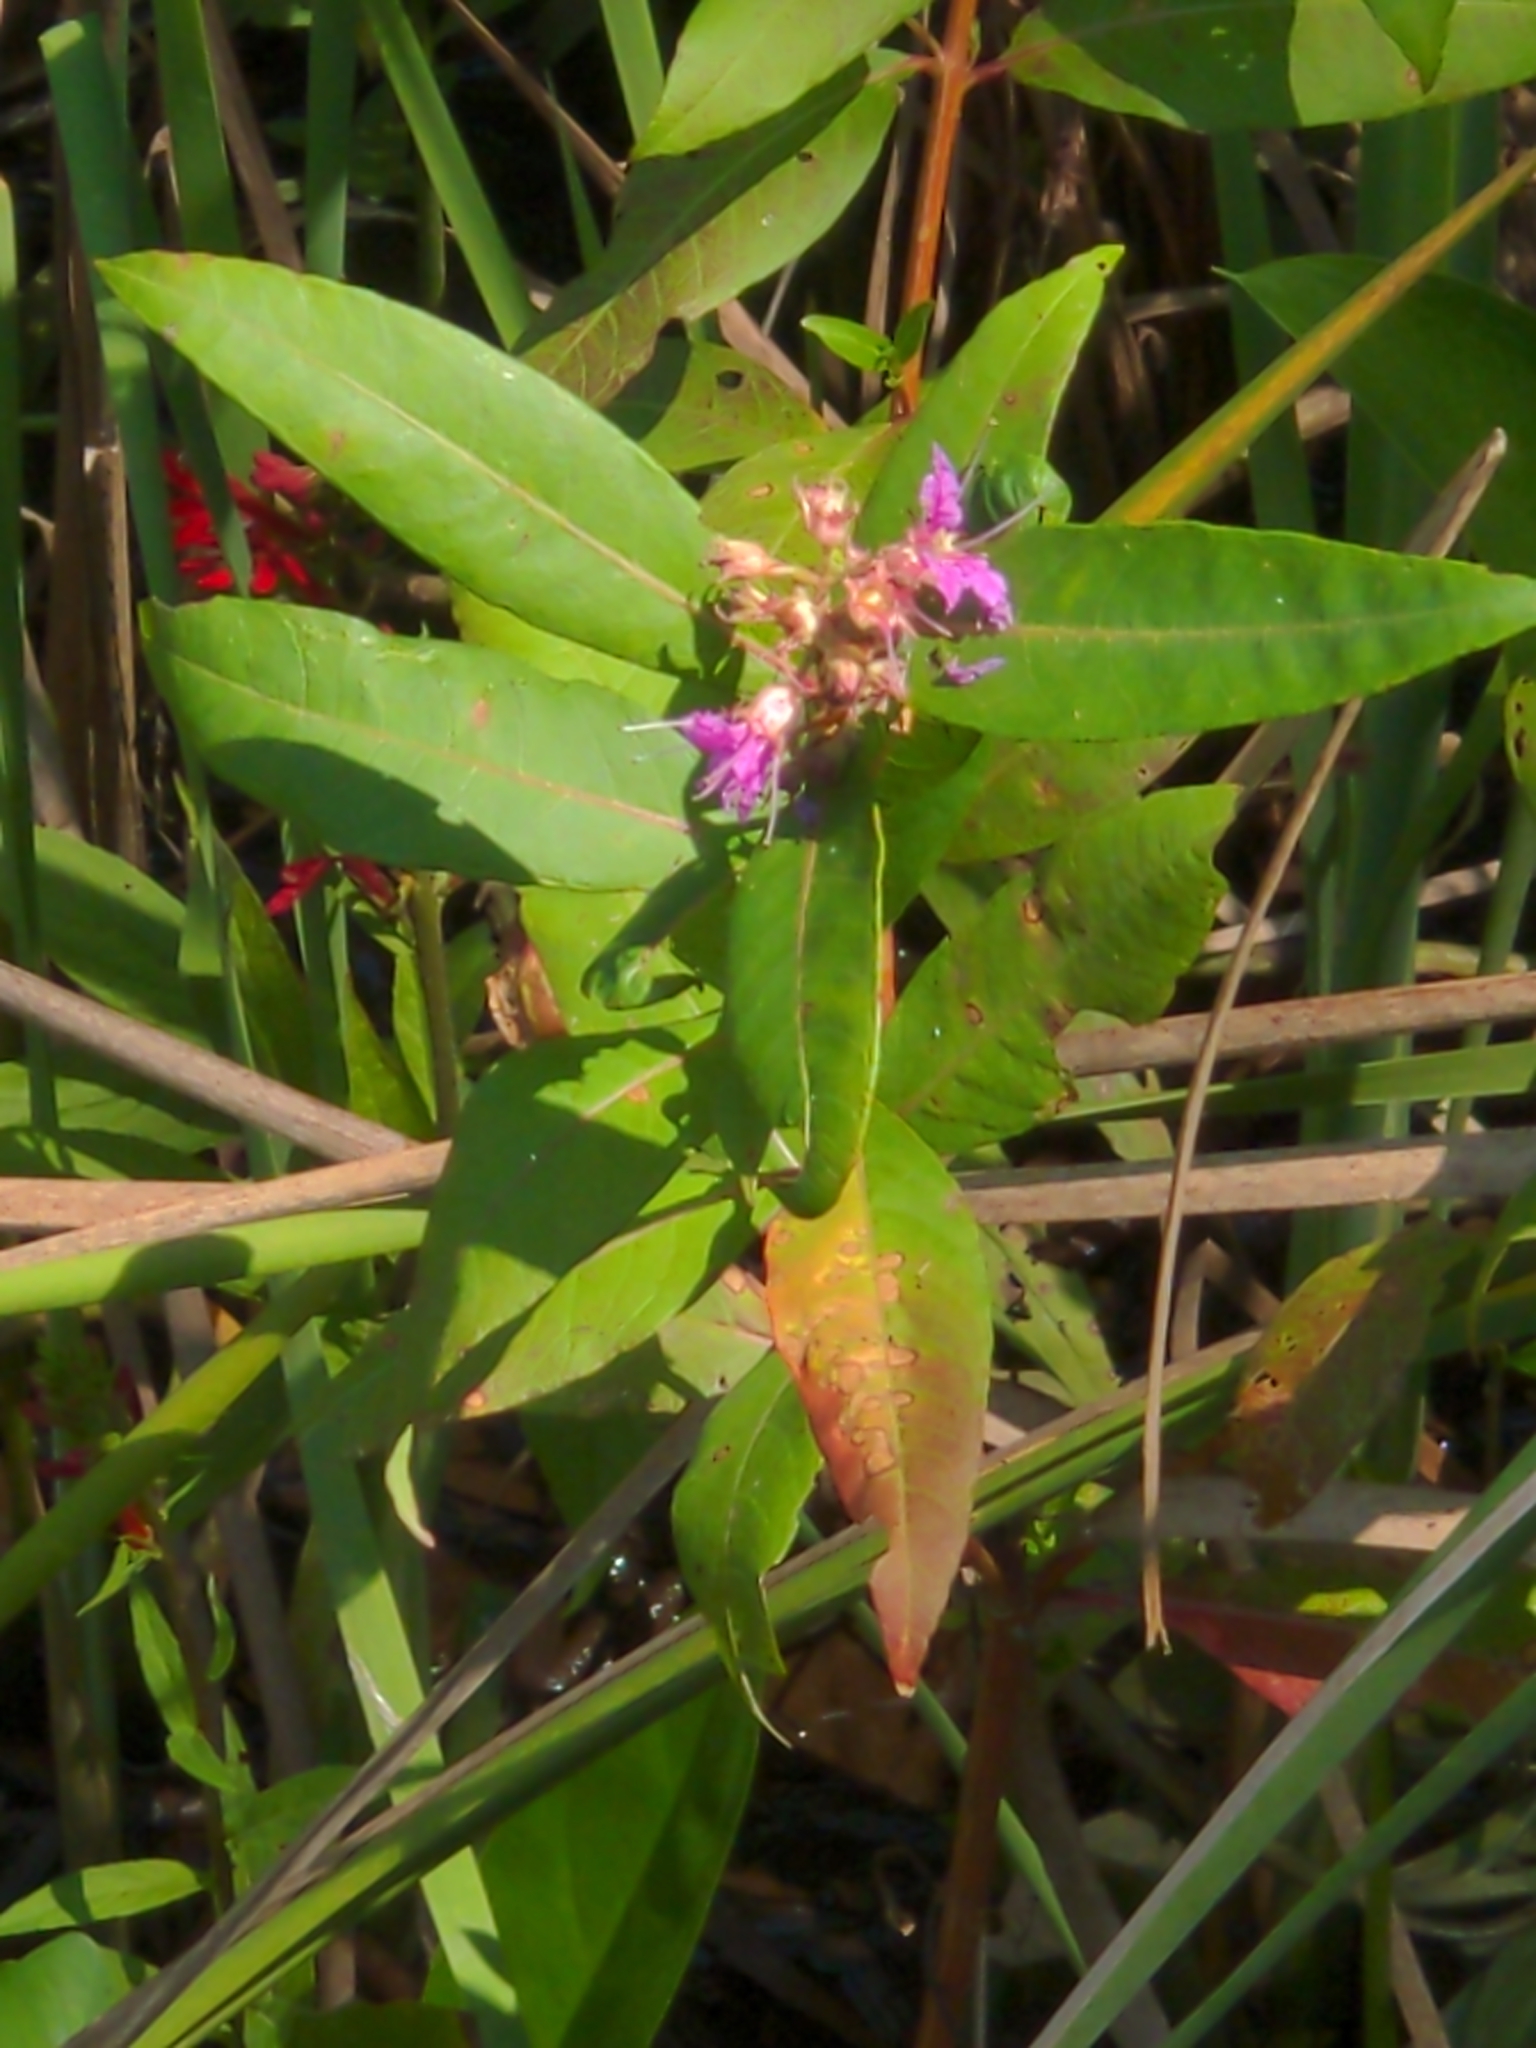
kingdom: Plantae
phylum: Tracheophyta
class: Magnoliopsida
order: Myrtales
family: Lythraceae
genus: Decodon
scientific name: Decodon verticillatus
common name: Hairy swamp loosestrife
